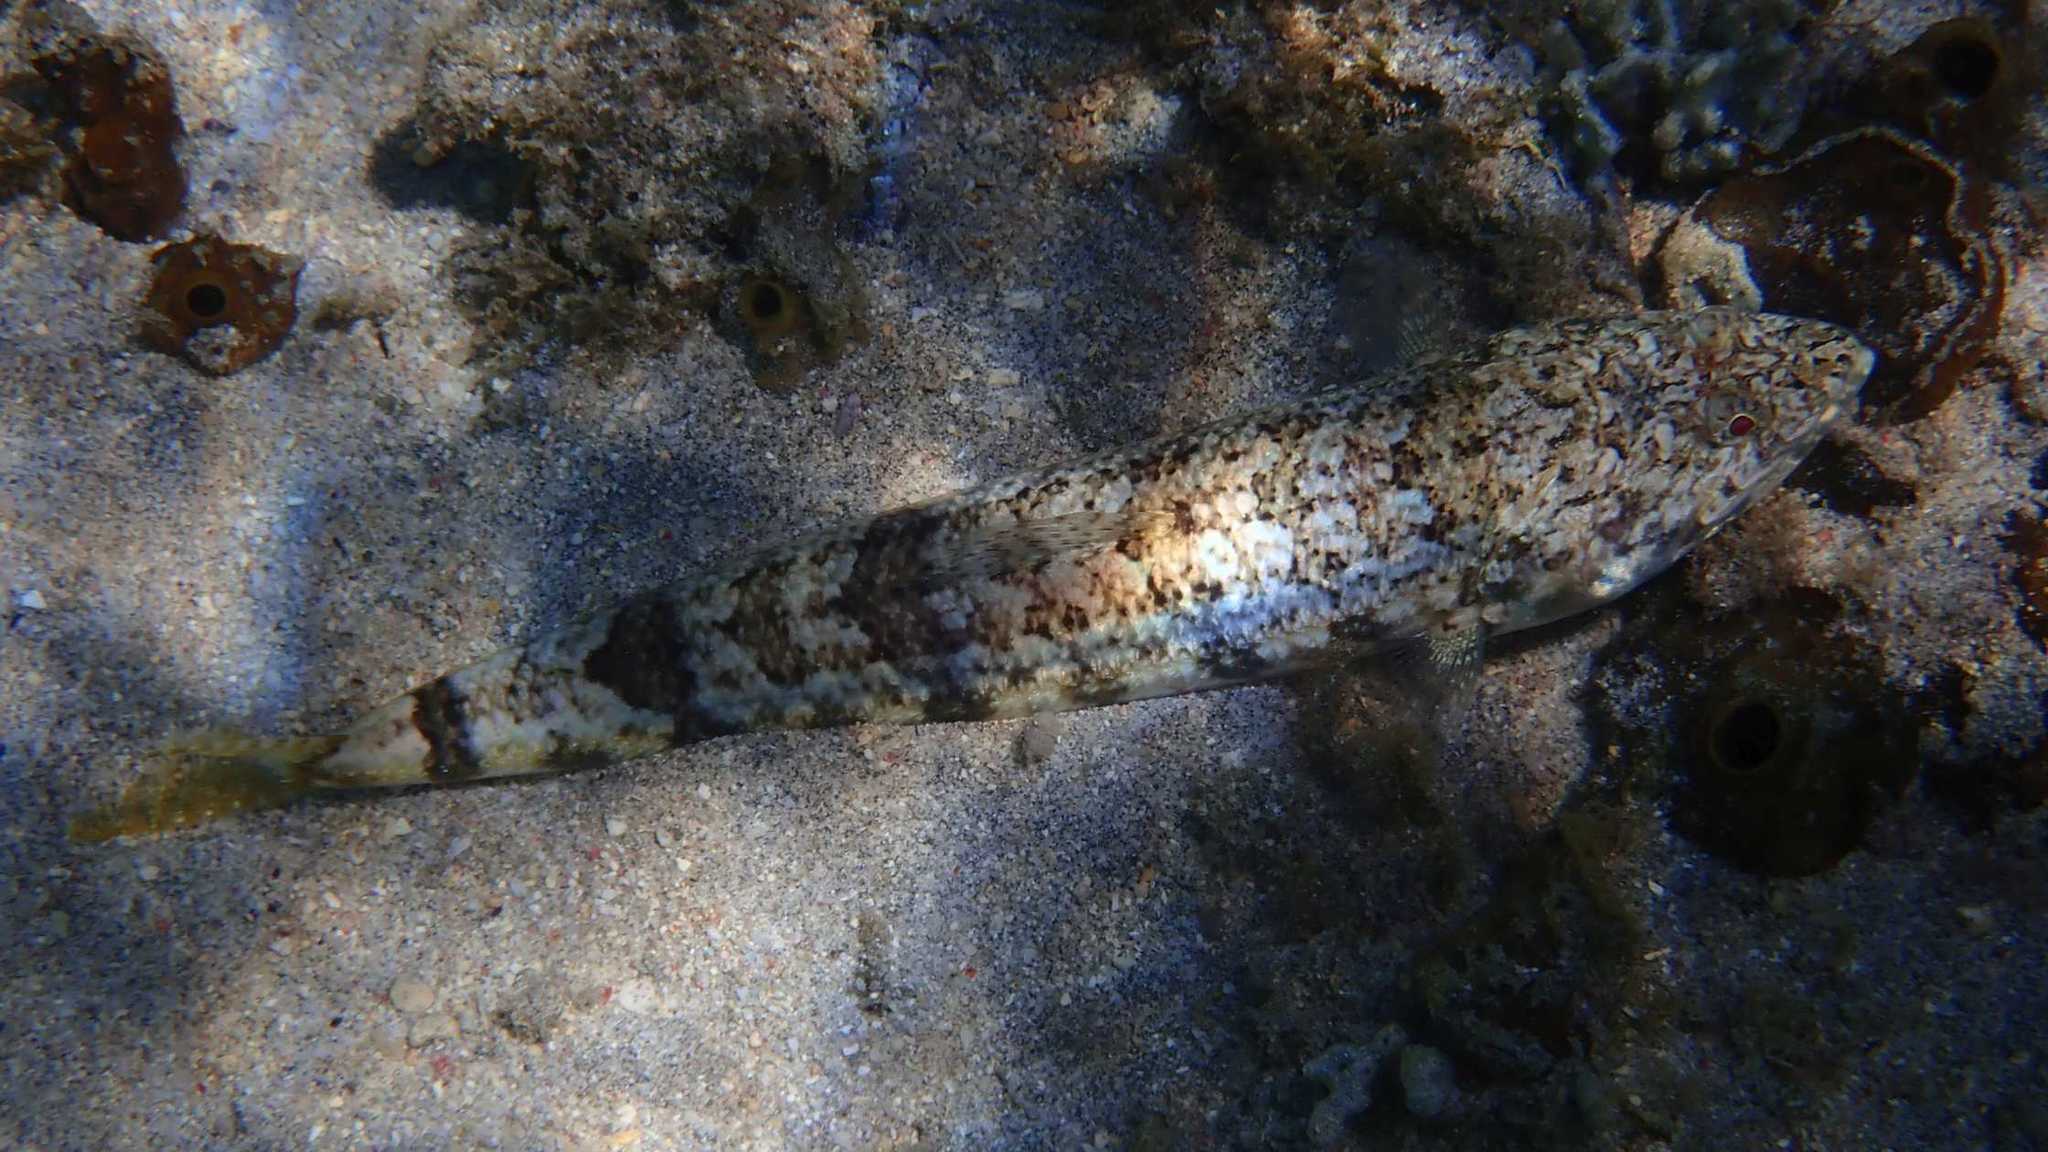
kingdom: Animalia
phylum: Chordata
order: Aulopiformes
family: Synodontidae
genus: Synodus
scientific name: Synodus dermatogenys
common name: Banded lizardfish
